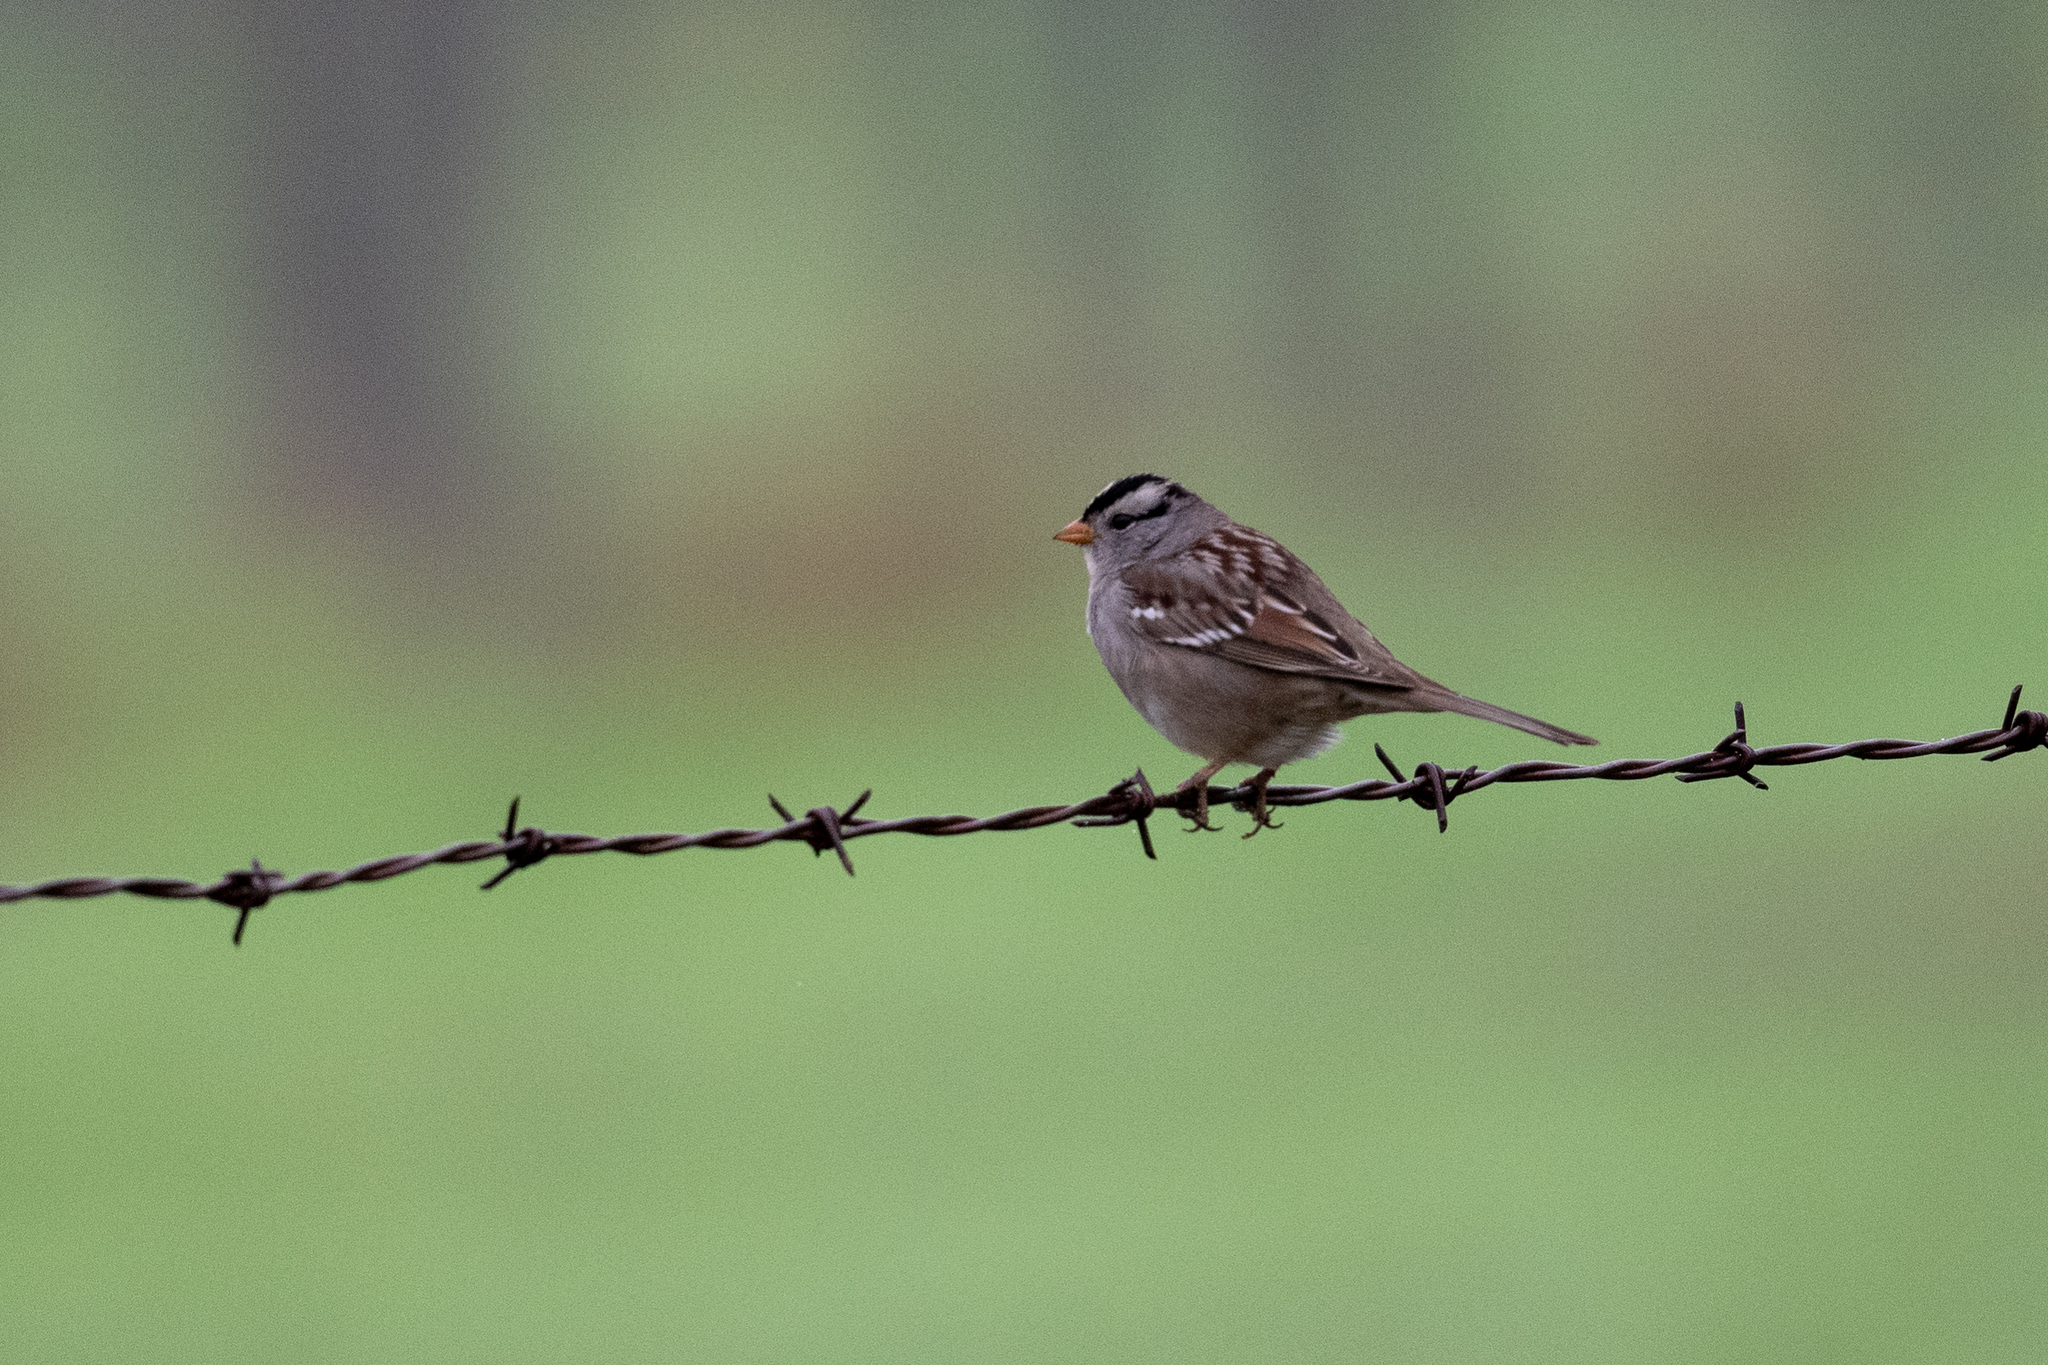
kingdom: Animalia
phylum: Chordata
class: Aves
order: Passeriformes
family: Passerellidae
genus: Zonotrichia
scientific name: Zonotrichia leucophrys
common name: White-crowned sparrow
